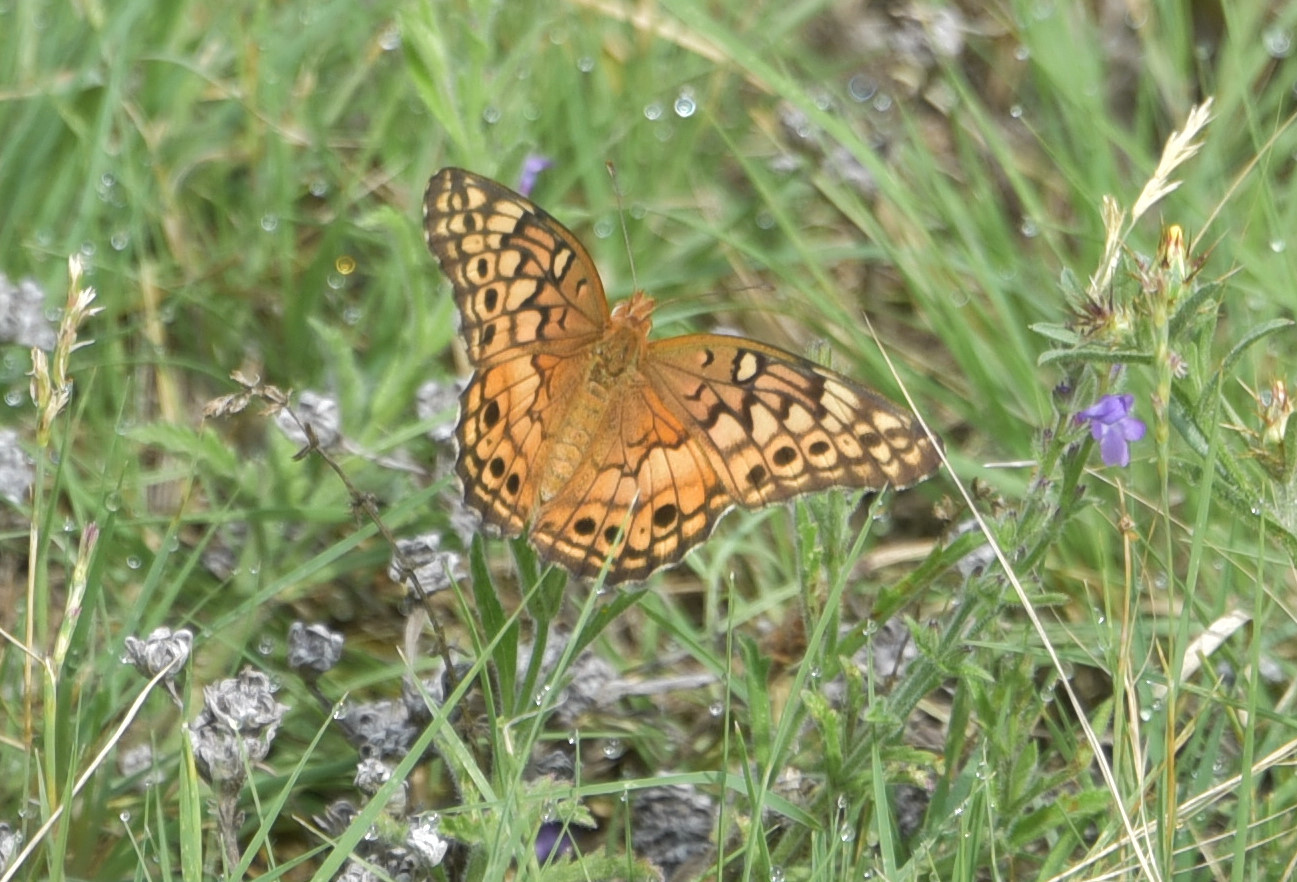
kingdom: Animalia
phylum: Arthropoda
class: Insecta
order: Lepidoptera
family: Nymphalidae
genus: Euptoieta
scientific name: Euptoieta claudia
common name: Variegated fritillary
